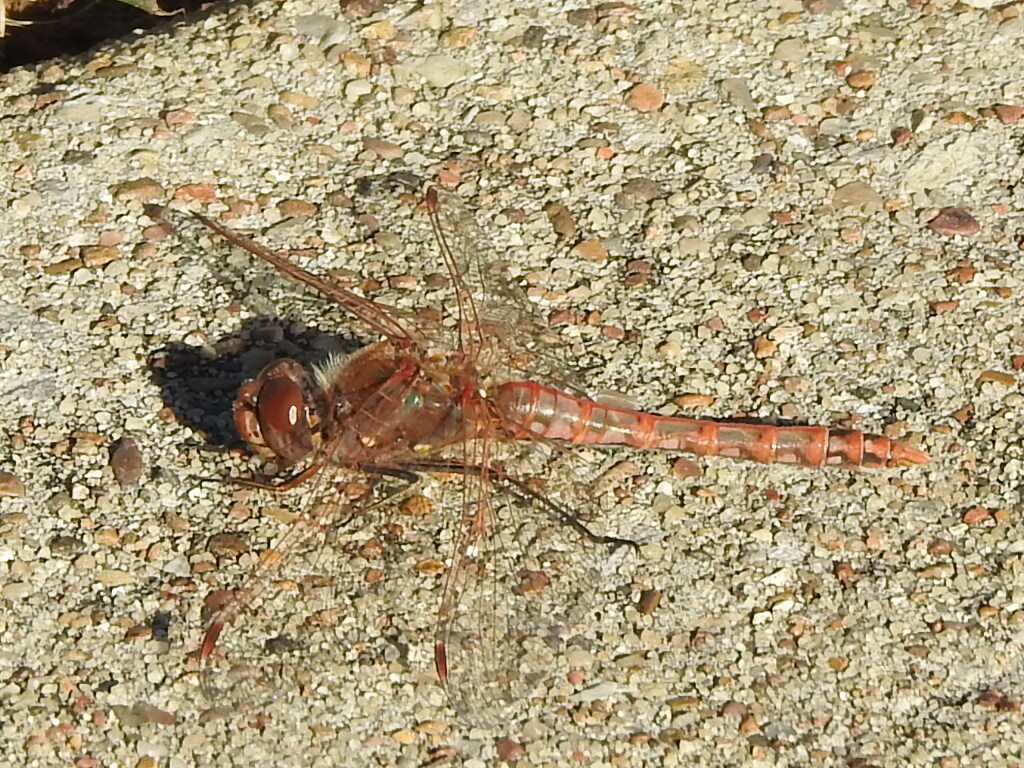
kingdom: Animalia
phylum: Arthropoda
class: Insecta
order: Odonata
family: Libellulidae
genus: Sympetrum
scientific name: Sympetrum corruptum
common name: Variegated meadowhawk
